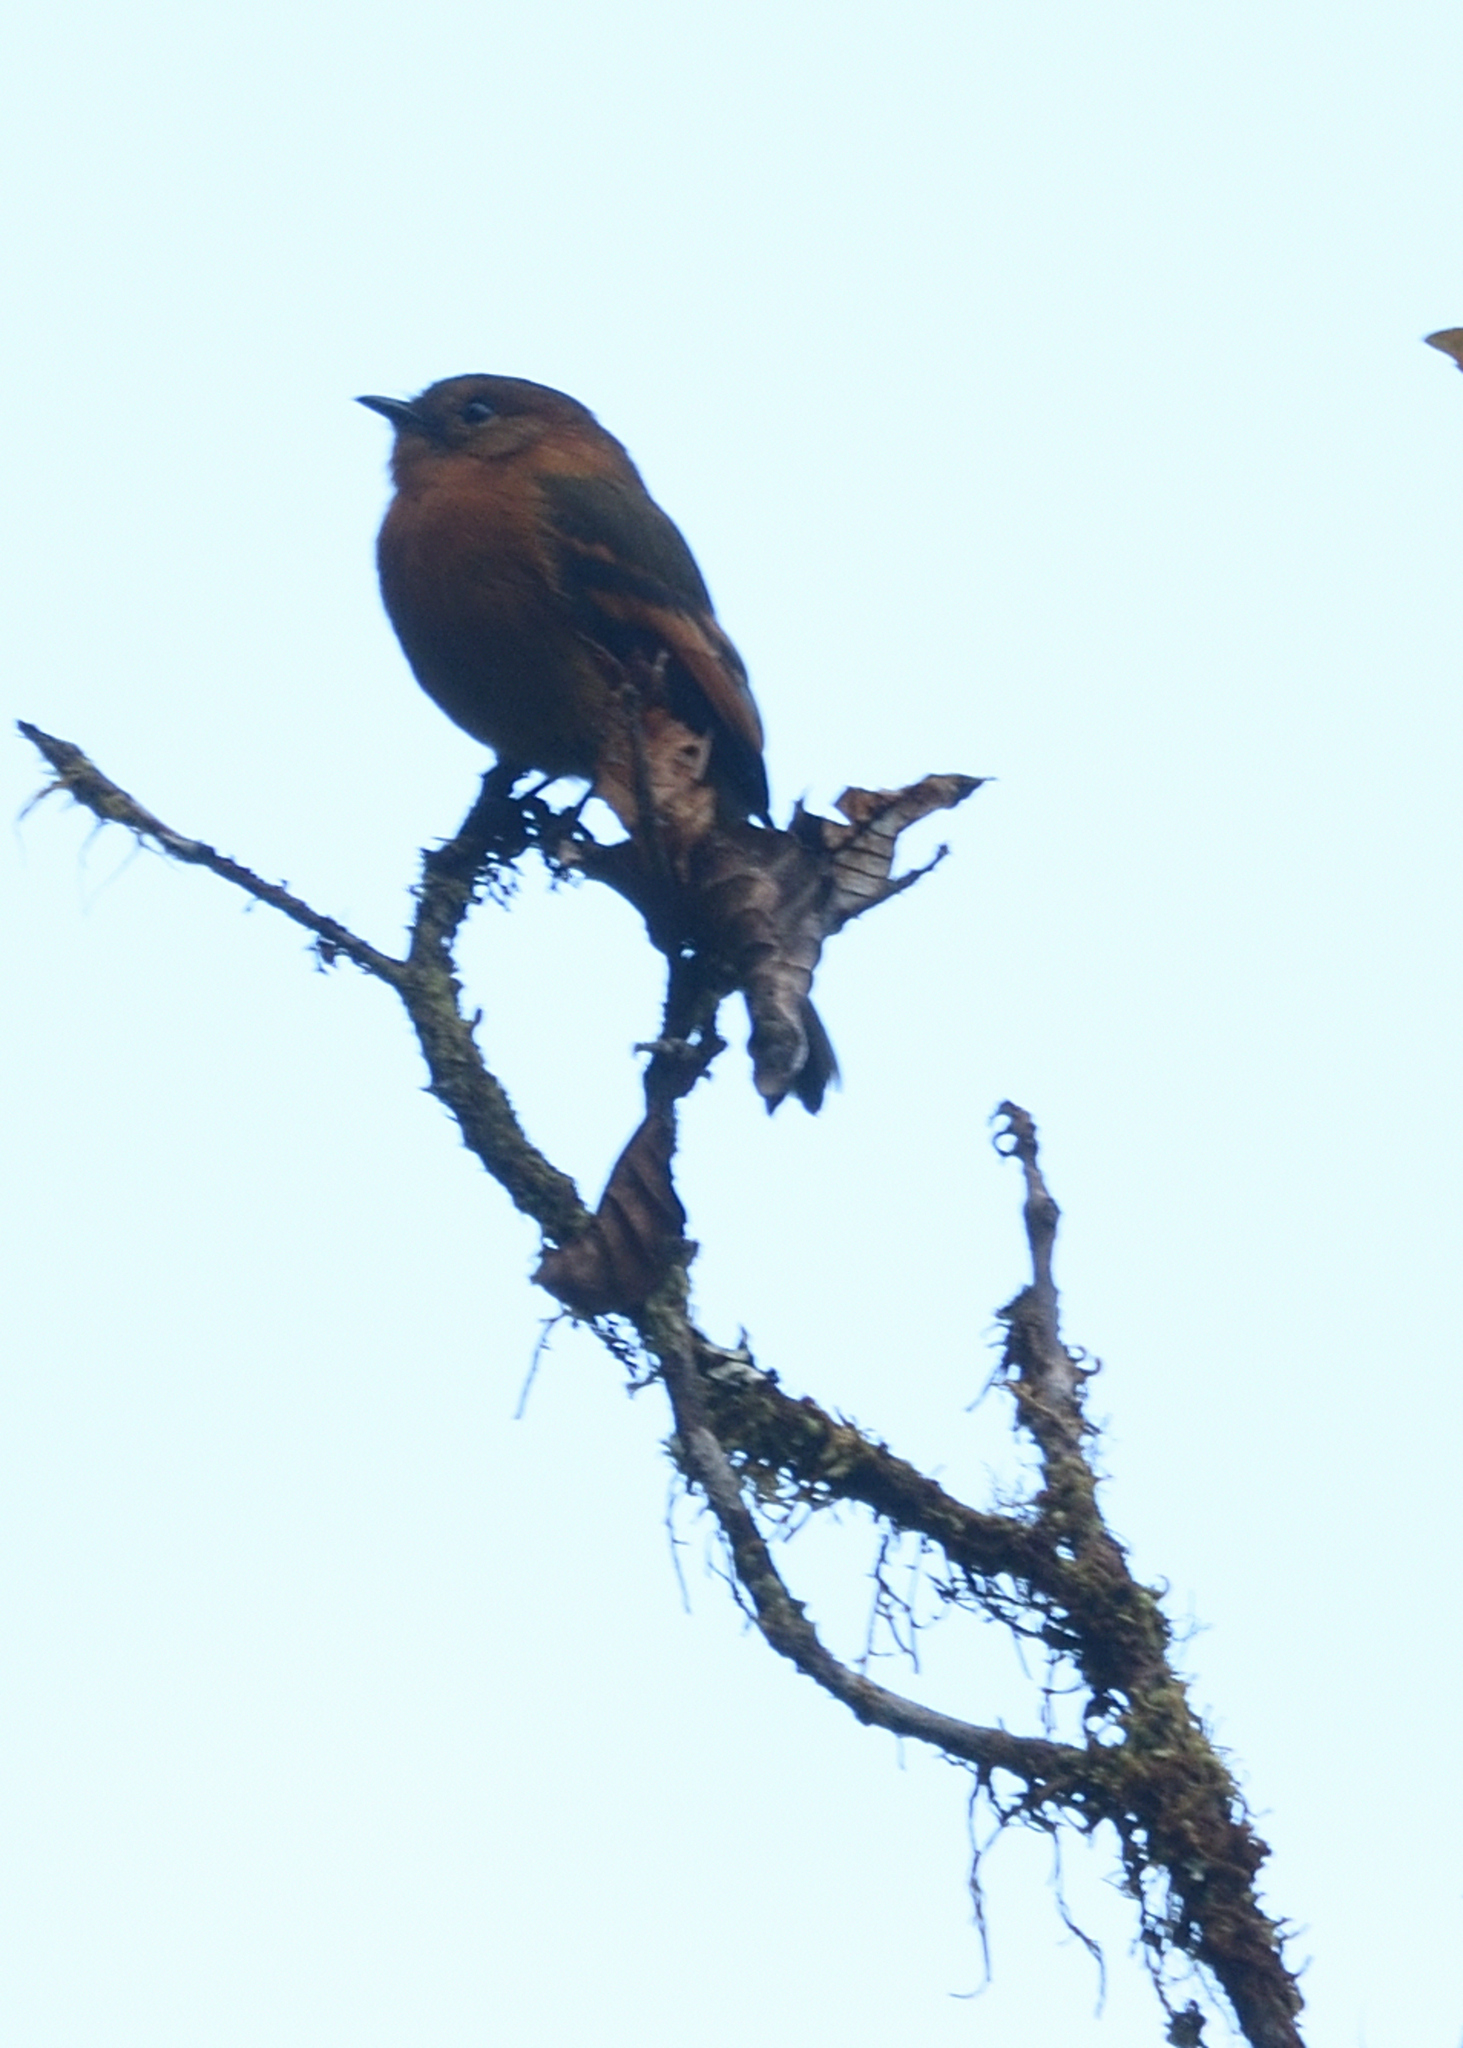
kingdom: Animalia
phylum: Chordata
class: Aves
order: Passeriformes
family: Tyrannidae
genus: Pyrrhomyias
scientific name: Pyrrhomyias cinnamomeus
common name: Cinnamon flycatcher
